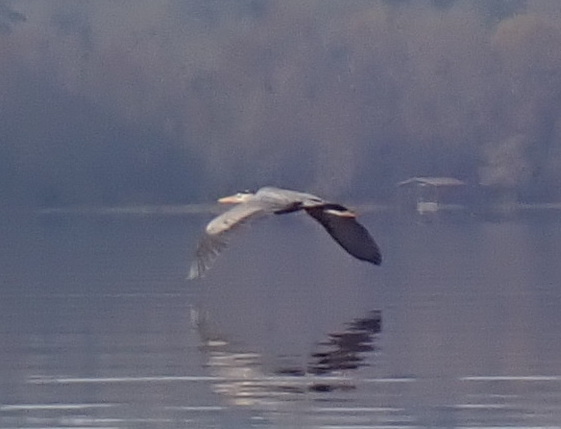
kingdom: Animalia
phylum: Chordata
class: Aves
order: Pelecaniformes
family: Ardeidae
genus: Ardea
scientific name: Ardea herodias
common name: Great blue heron
